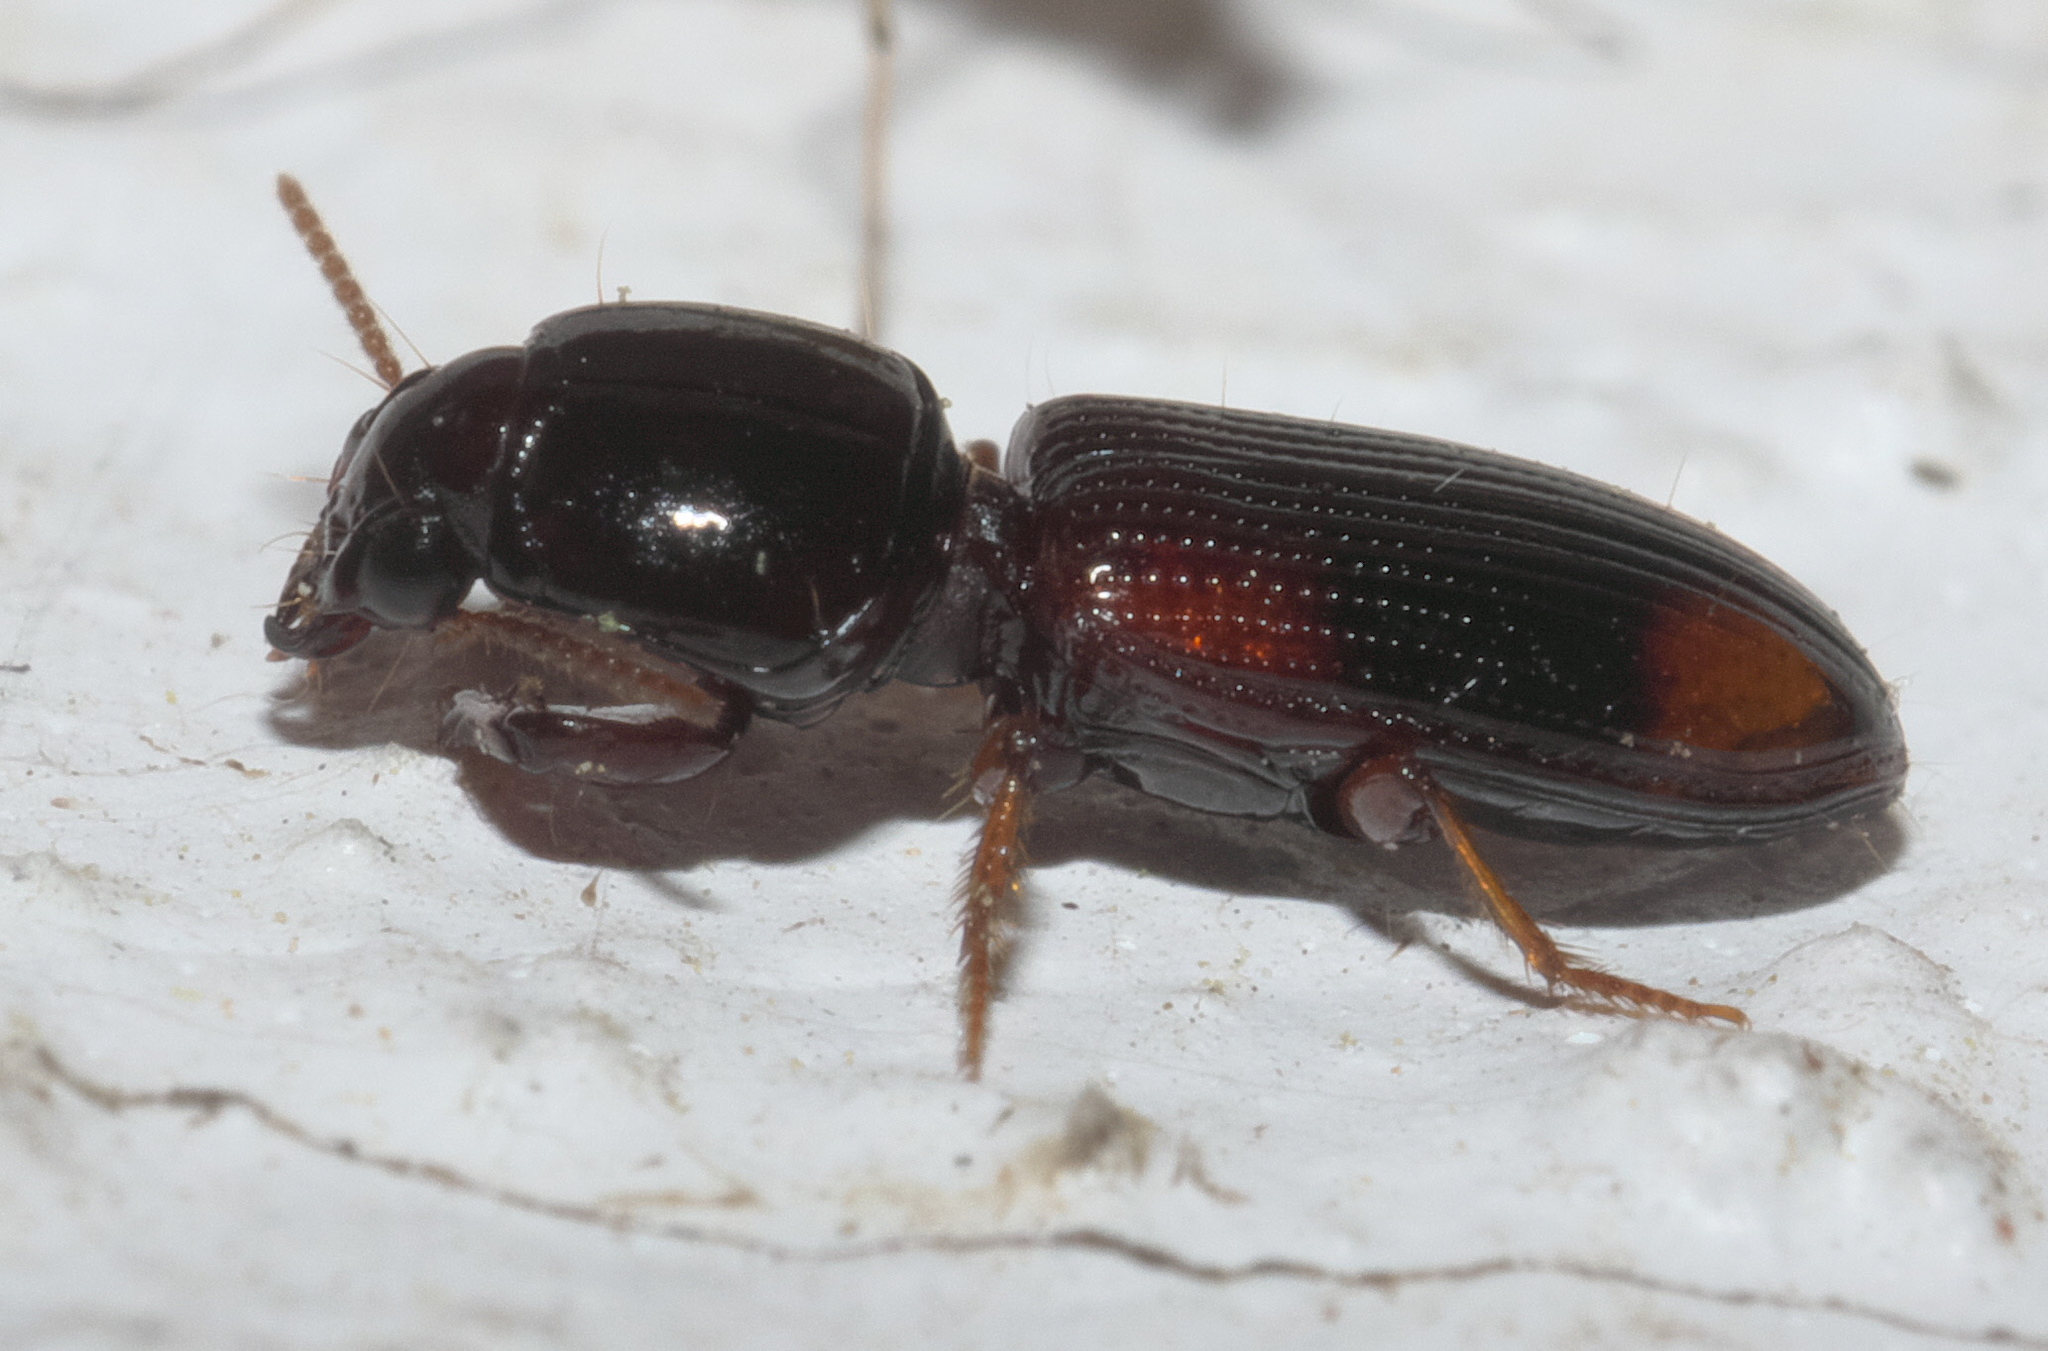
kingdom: Animalia
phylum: Arthropoda
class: Insecta
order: Coleoptera
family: Carabidae
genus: Clivina
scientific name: Clivina bipustulata
